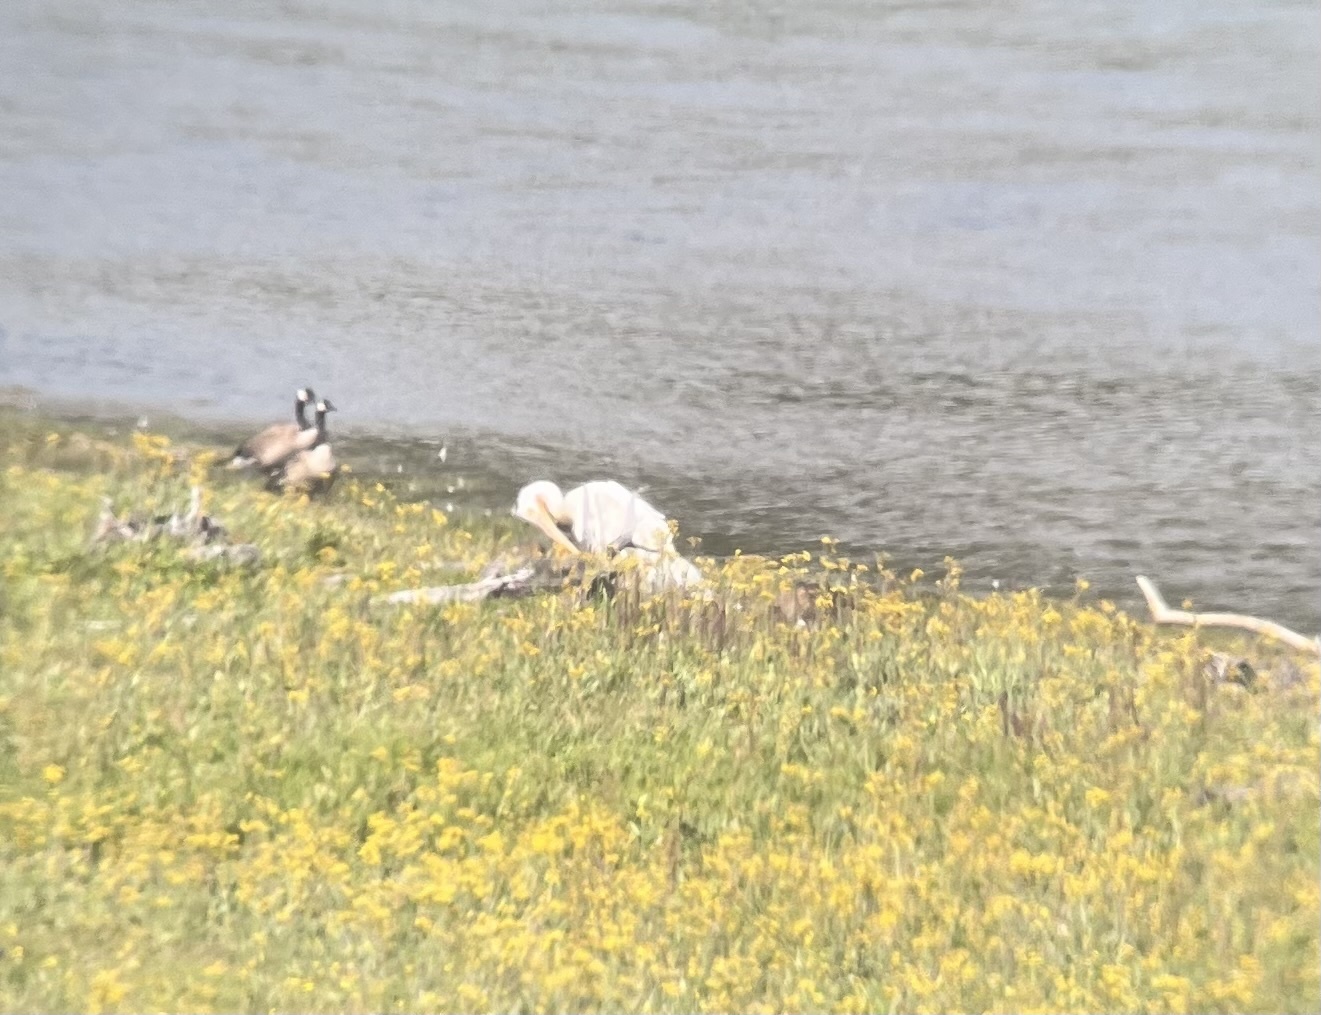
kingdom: Animalia
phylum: Chordata
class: Aves
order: Pelecaniformes
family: Pelecanidae
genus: Pelecanus
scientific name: Pelecanus erythrorhynchos
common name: American white pelican
